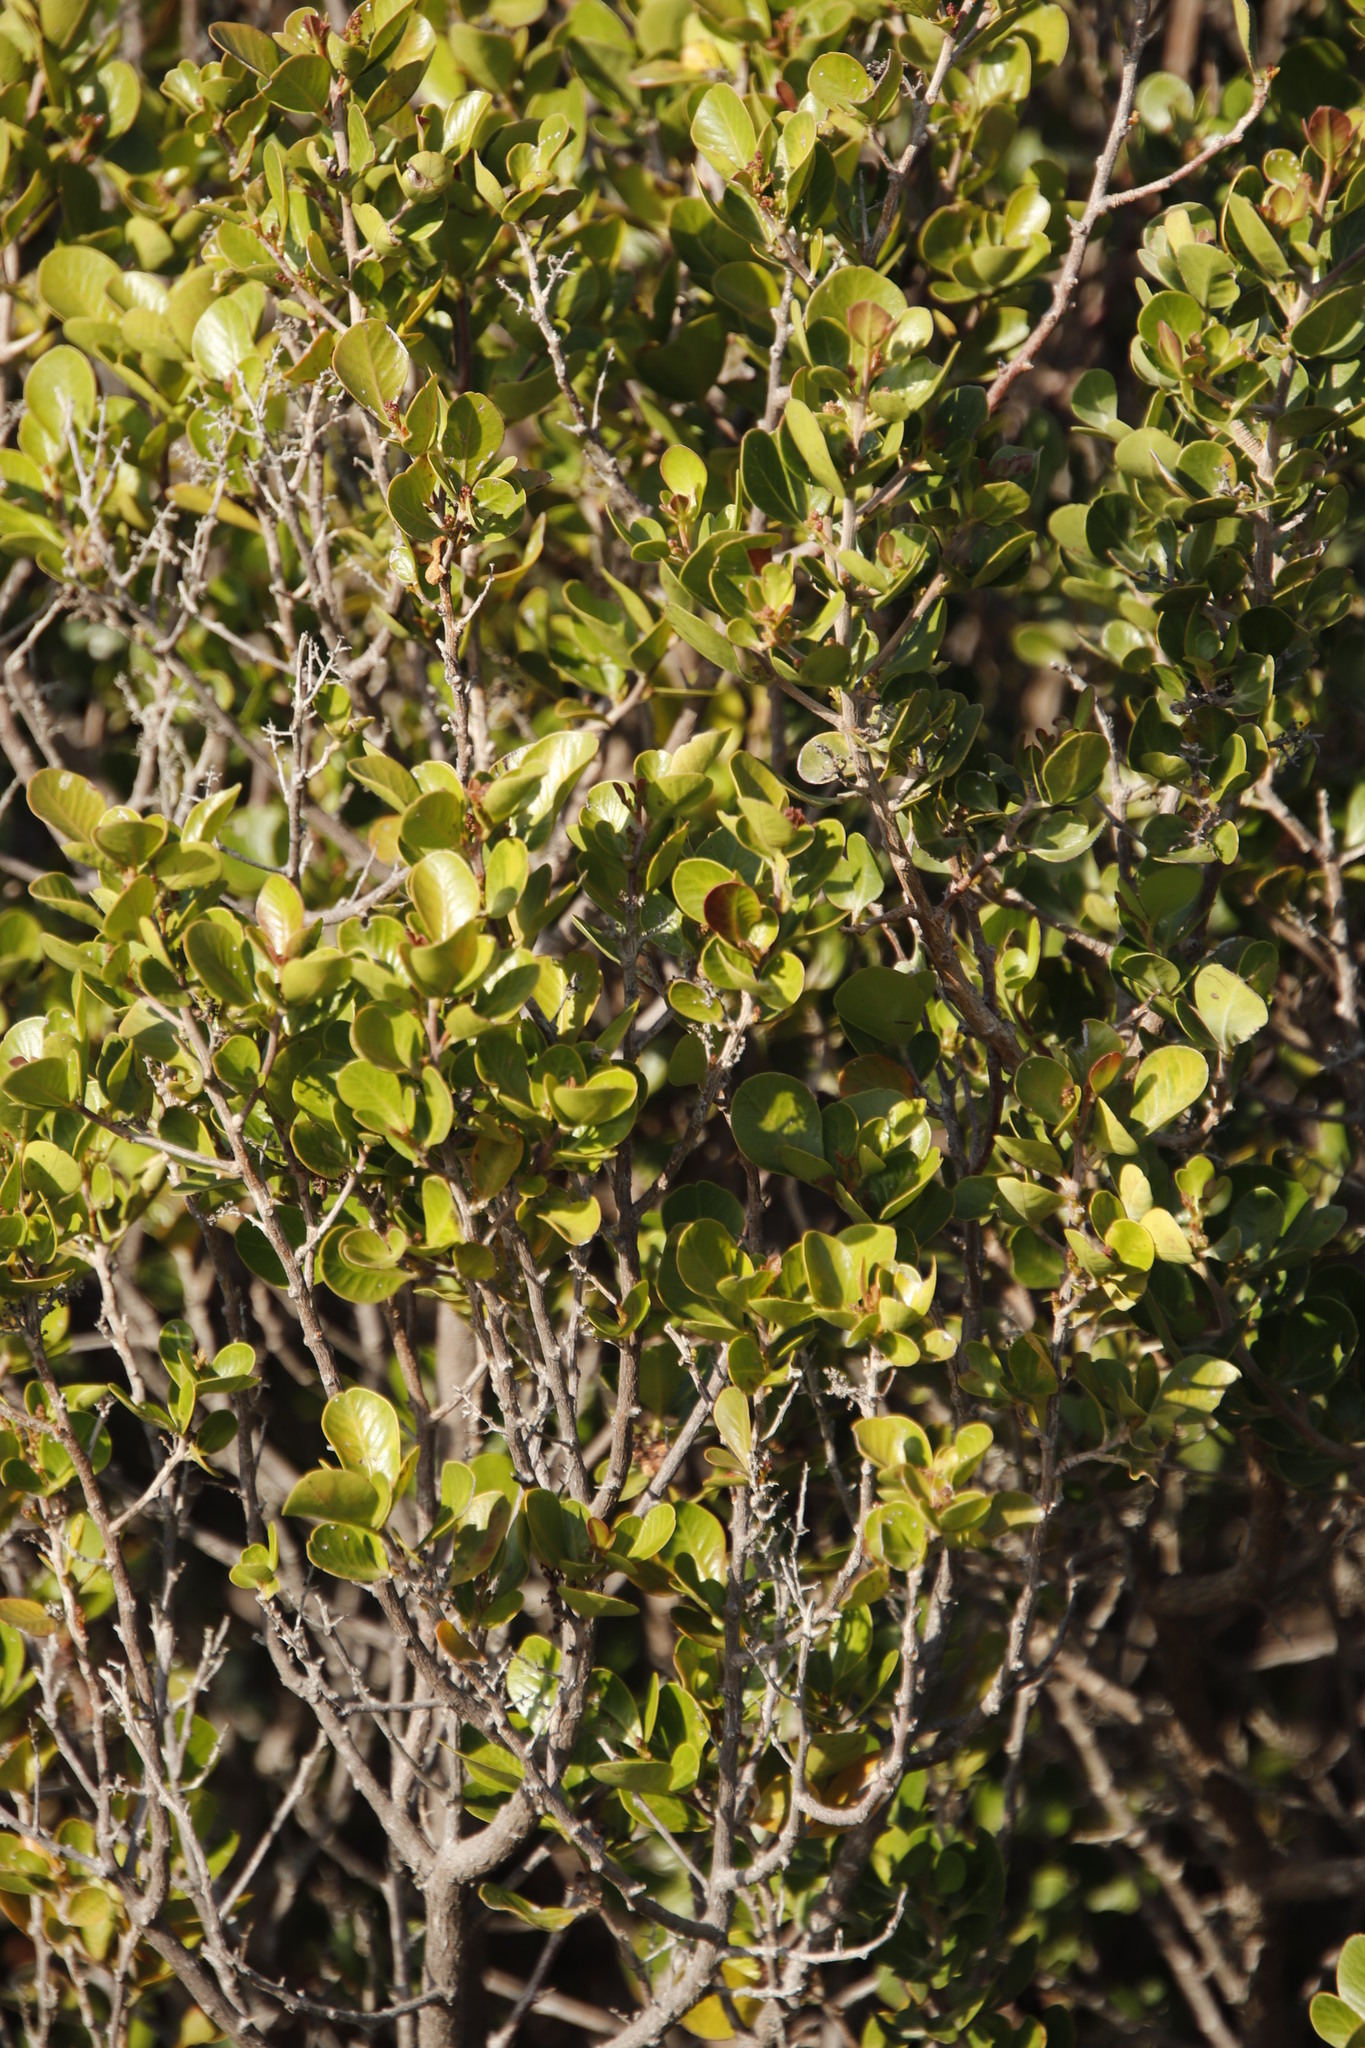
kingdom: Plantae
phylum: Tracheophyta
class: Magnoliopsida
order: Sapindales
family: Anacardiaceae
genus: Searsia
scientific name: Searsia lucida
